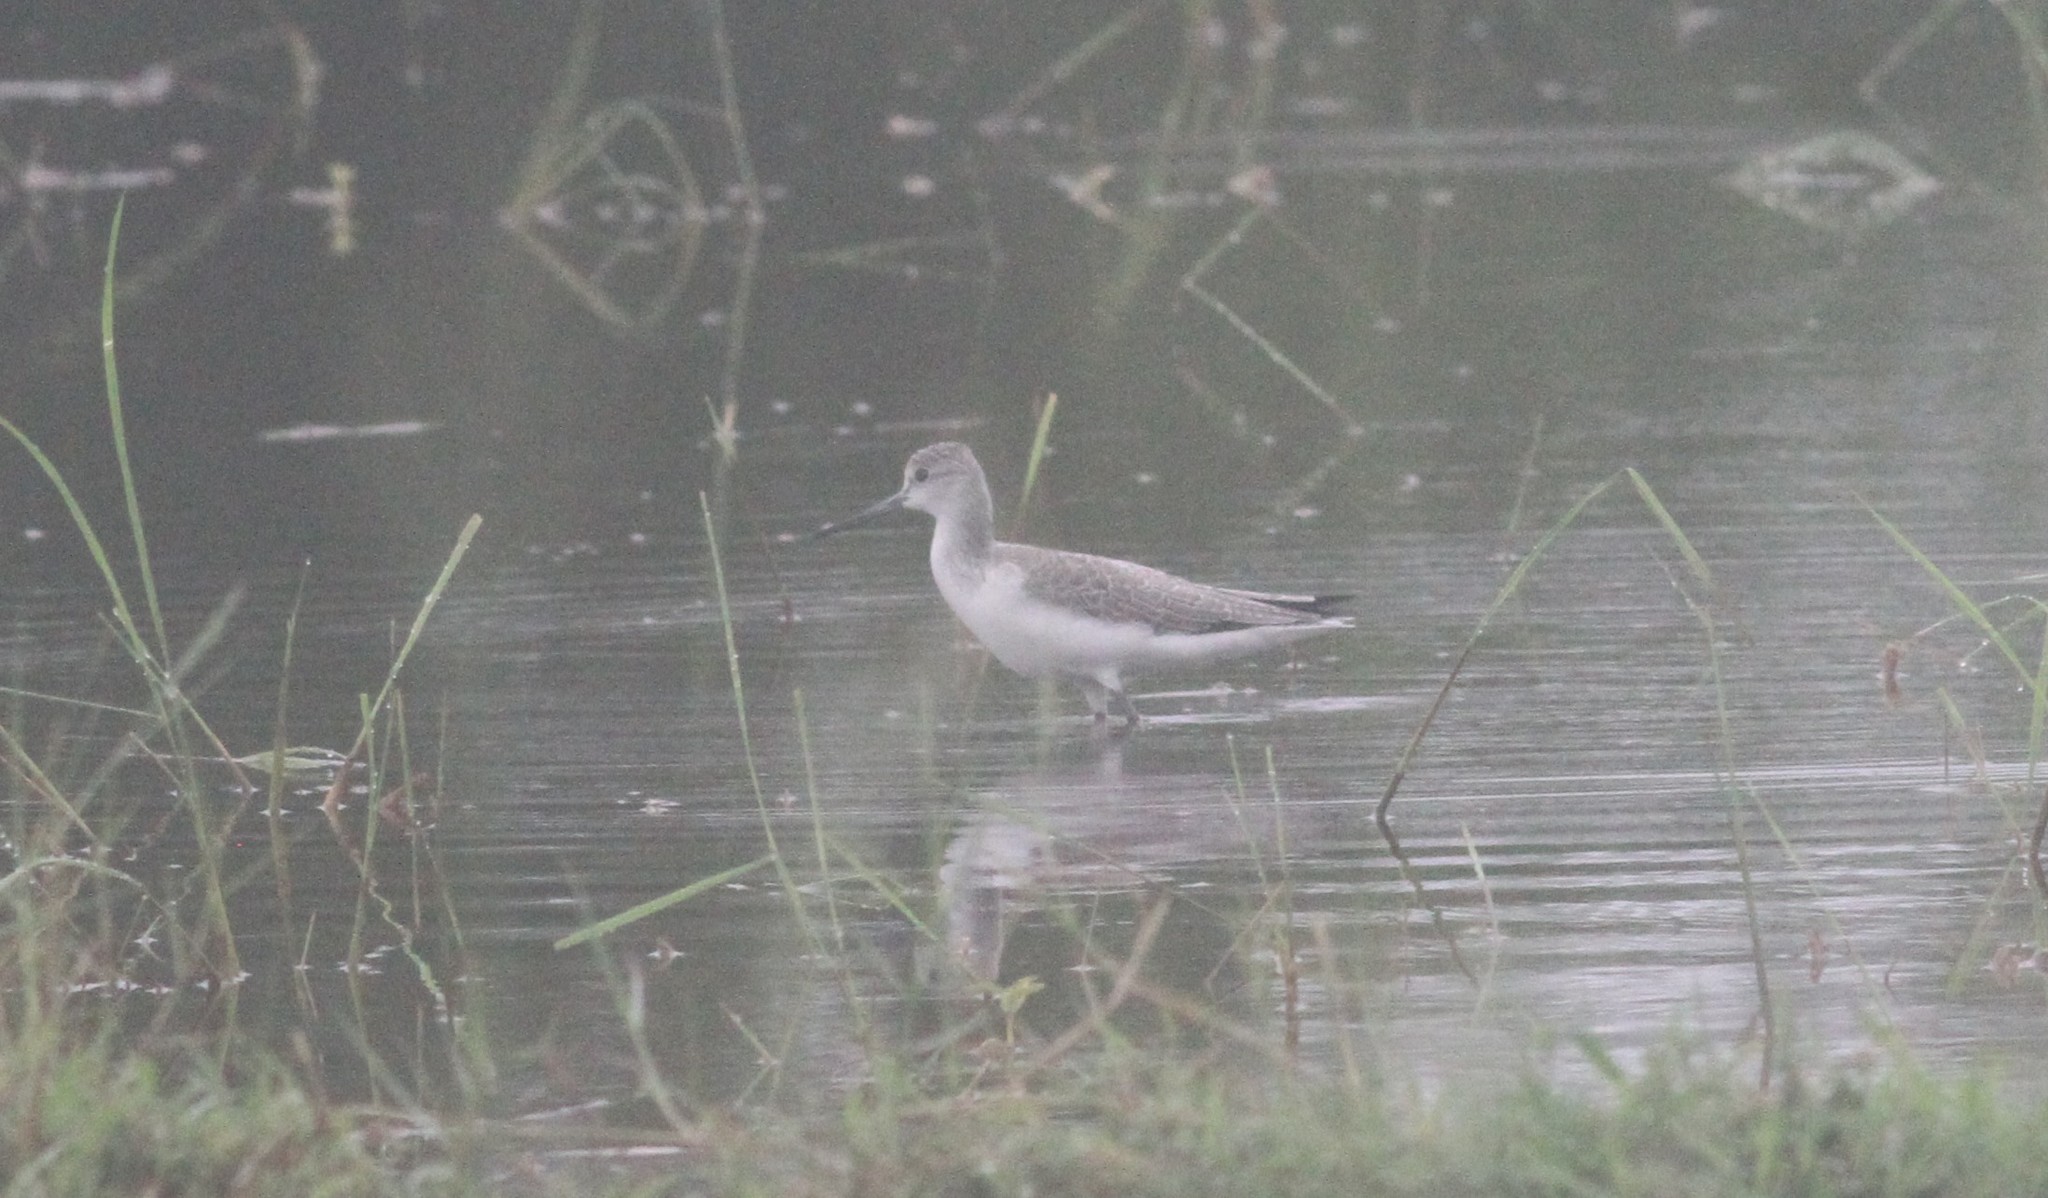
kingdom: Animalia
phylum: Chordata
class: Aves
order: Charadriiformes
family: Scolopacidae
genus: Tringa
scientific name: Tringa nebularia
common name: Common greenshank
